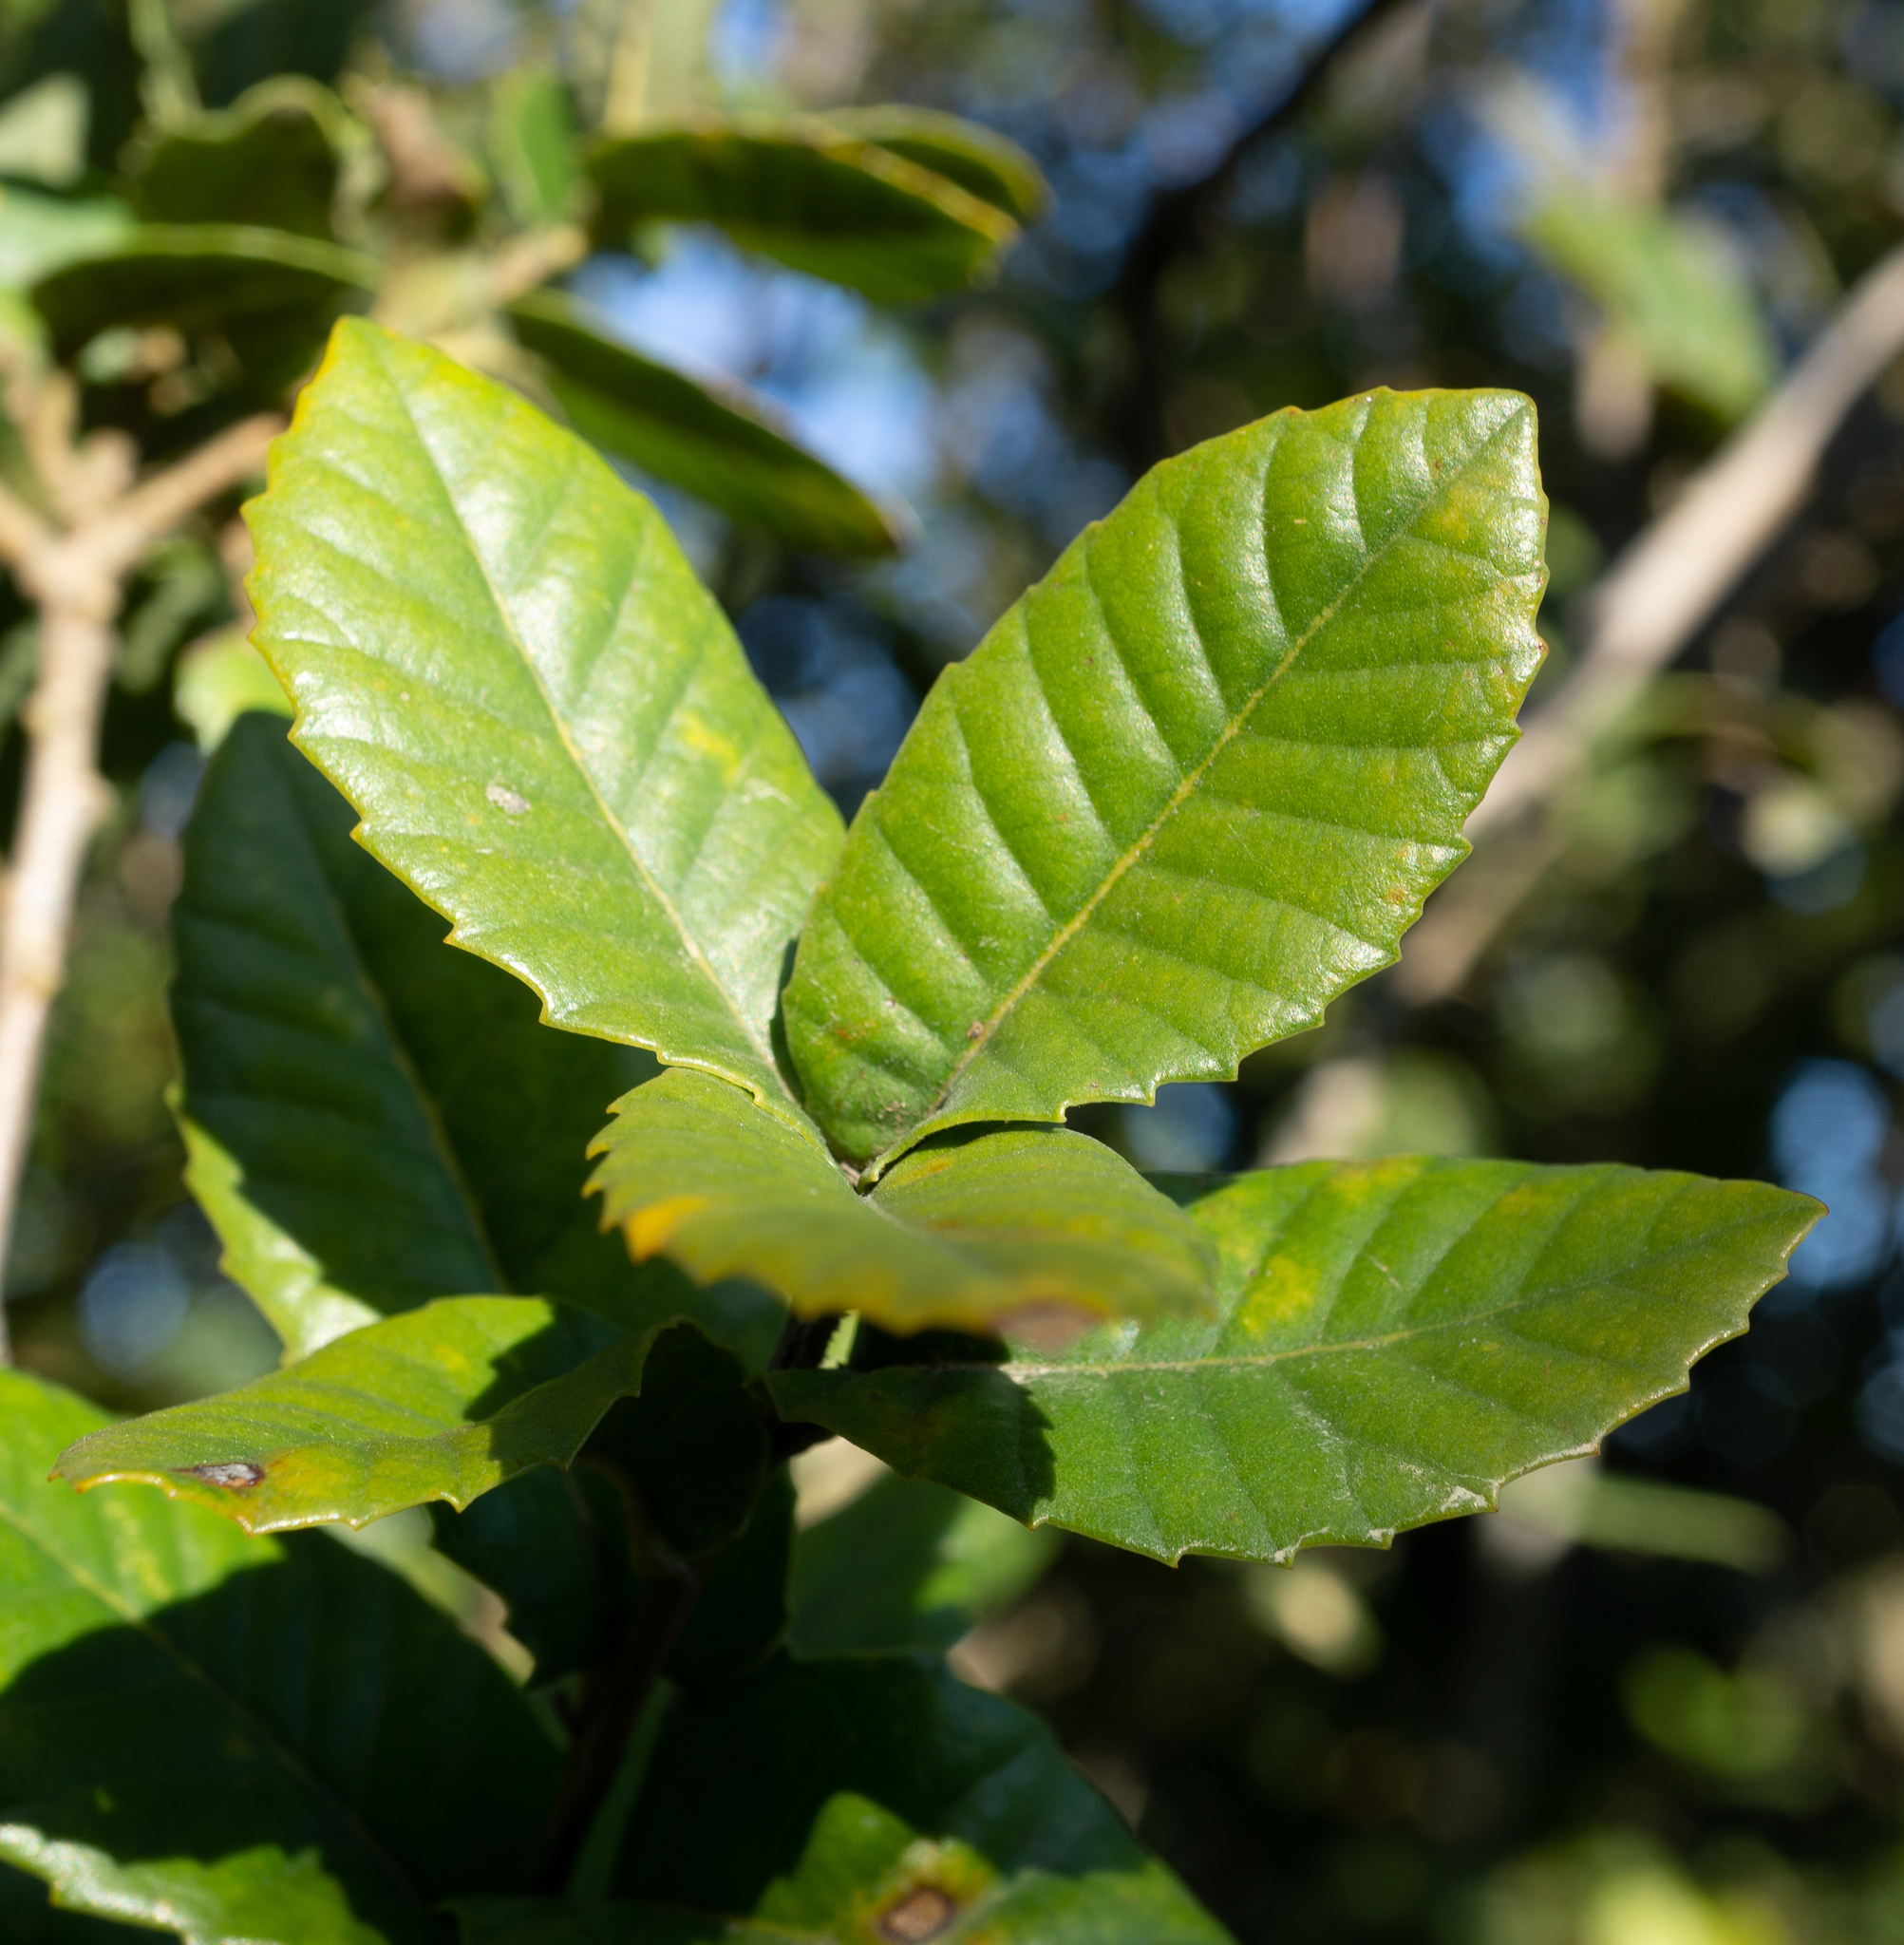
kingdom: Plantae
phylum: Tracheophyta
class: Magnoliopsida
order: Fagales
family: Fagaceae
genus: Quercus
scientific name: Quercus tomentella
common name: Island oak
